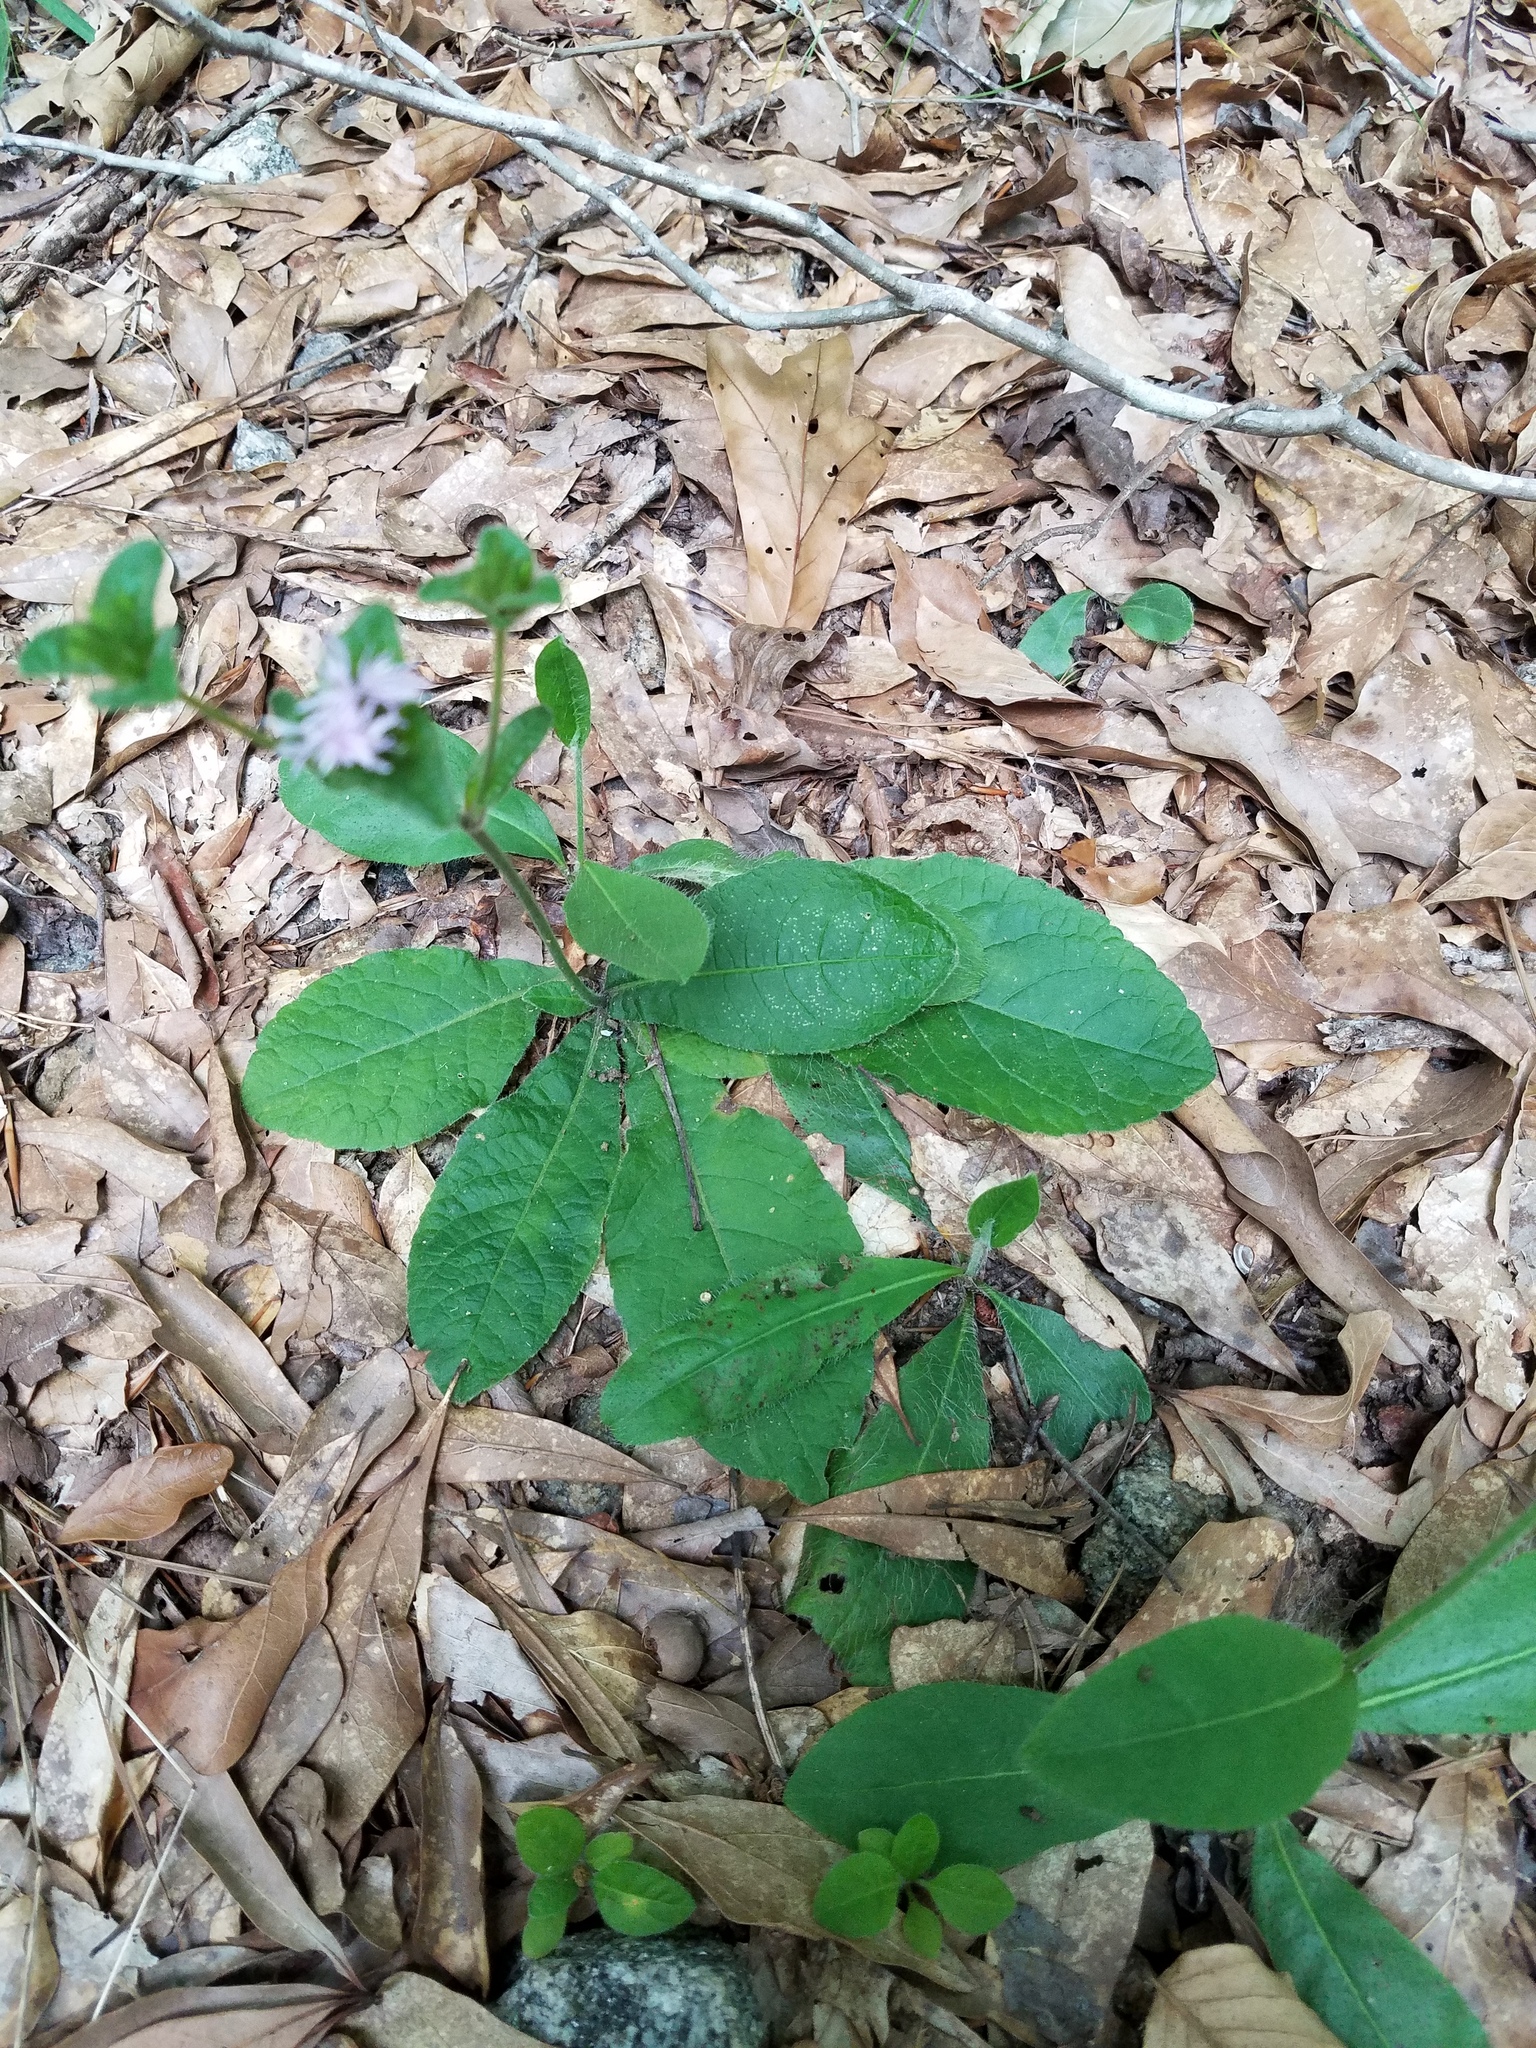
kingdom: Plantae
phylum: Tracheophyta
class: Magnoliopsida
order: Asterales
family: Asteraceae
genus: Elephantopus
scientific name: Elephantopus tomentosus
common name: Tobacco-weed
